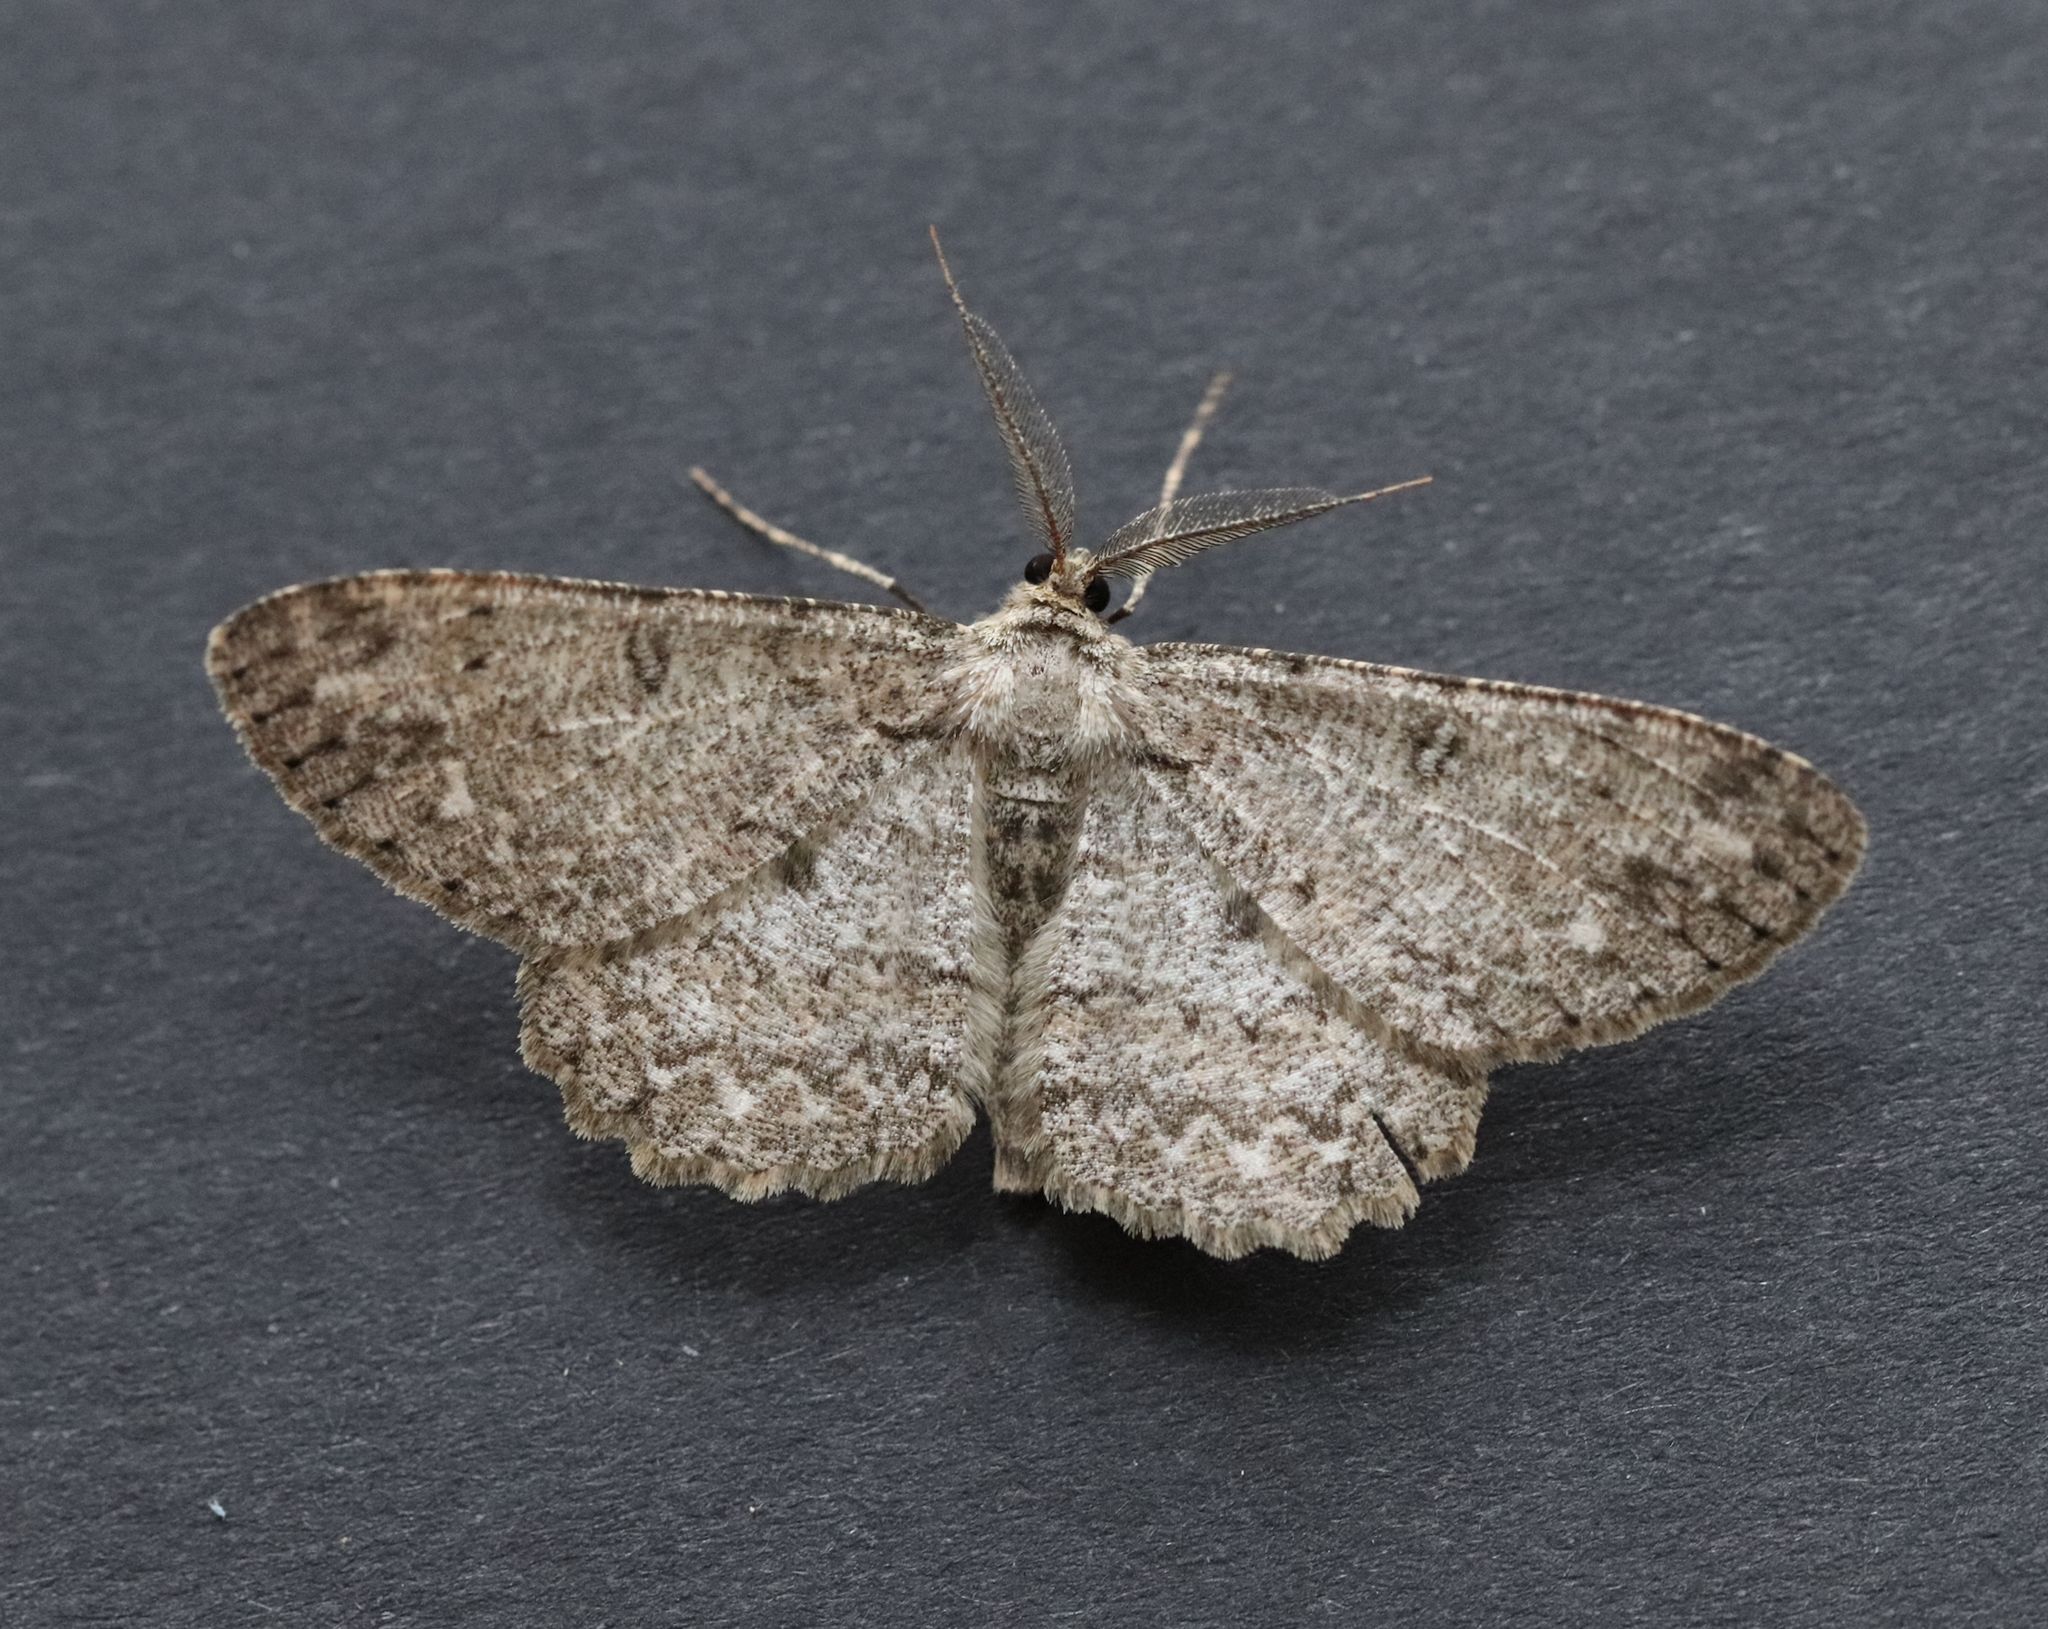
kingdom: Animalia
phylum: Arthropoda
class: Insecta
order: Lepidoptera
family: Geometridae
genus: Hypomecis
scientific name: Hypomecis punctinalis
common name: Pale oak beauty
